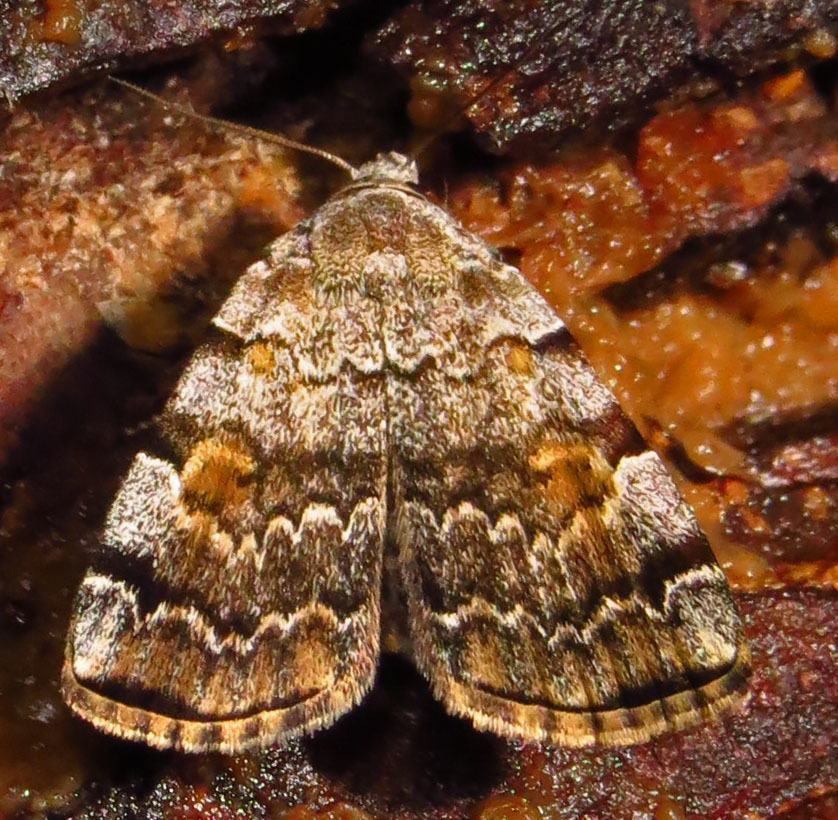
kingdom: Animalia
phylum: Arthropoda
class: Insecta
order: Lepidoptera
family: Erebidae
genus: Idia
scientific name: Idia americalis
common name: American idia moth
